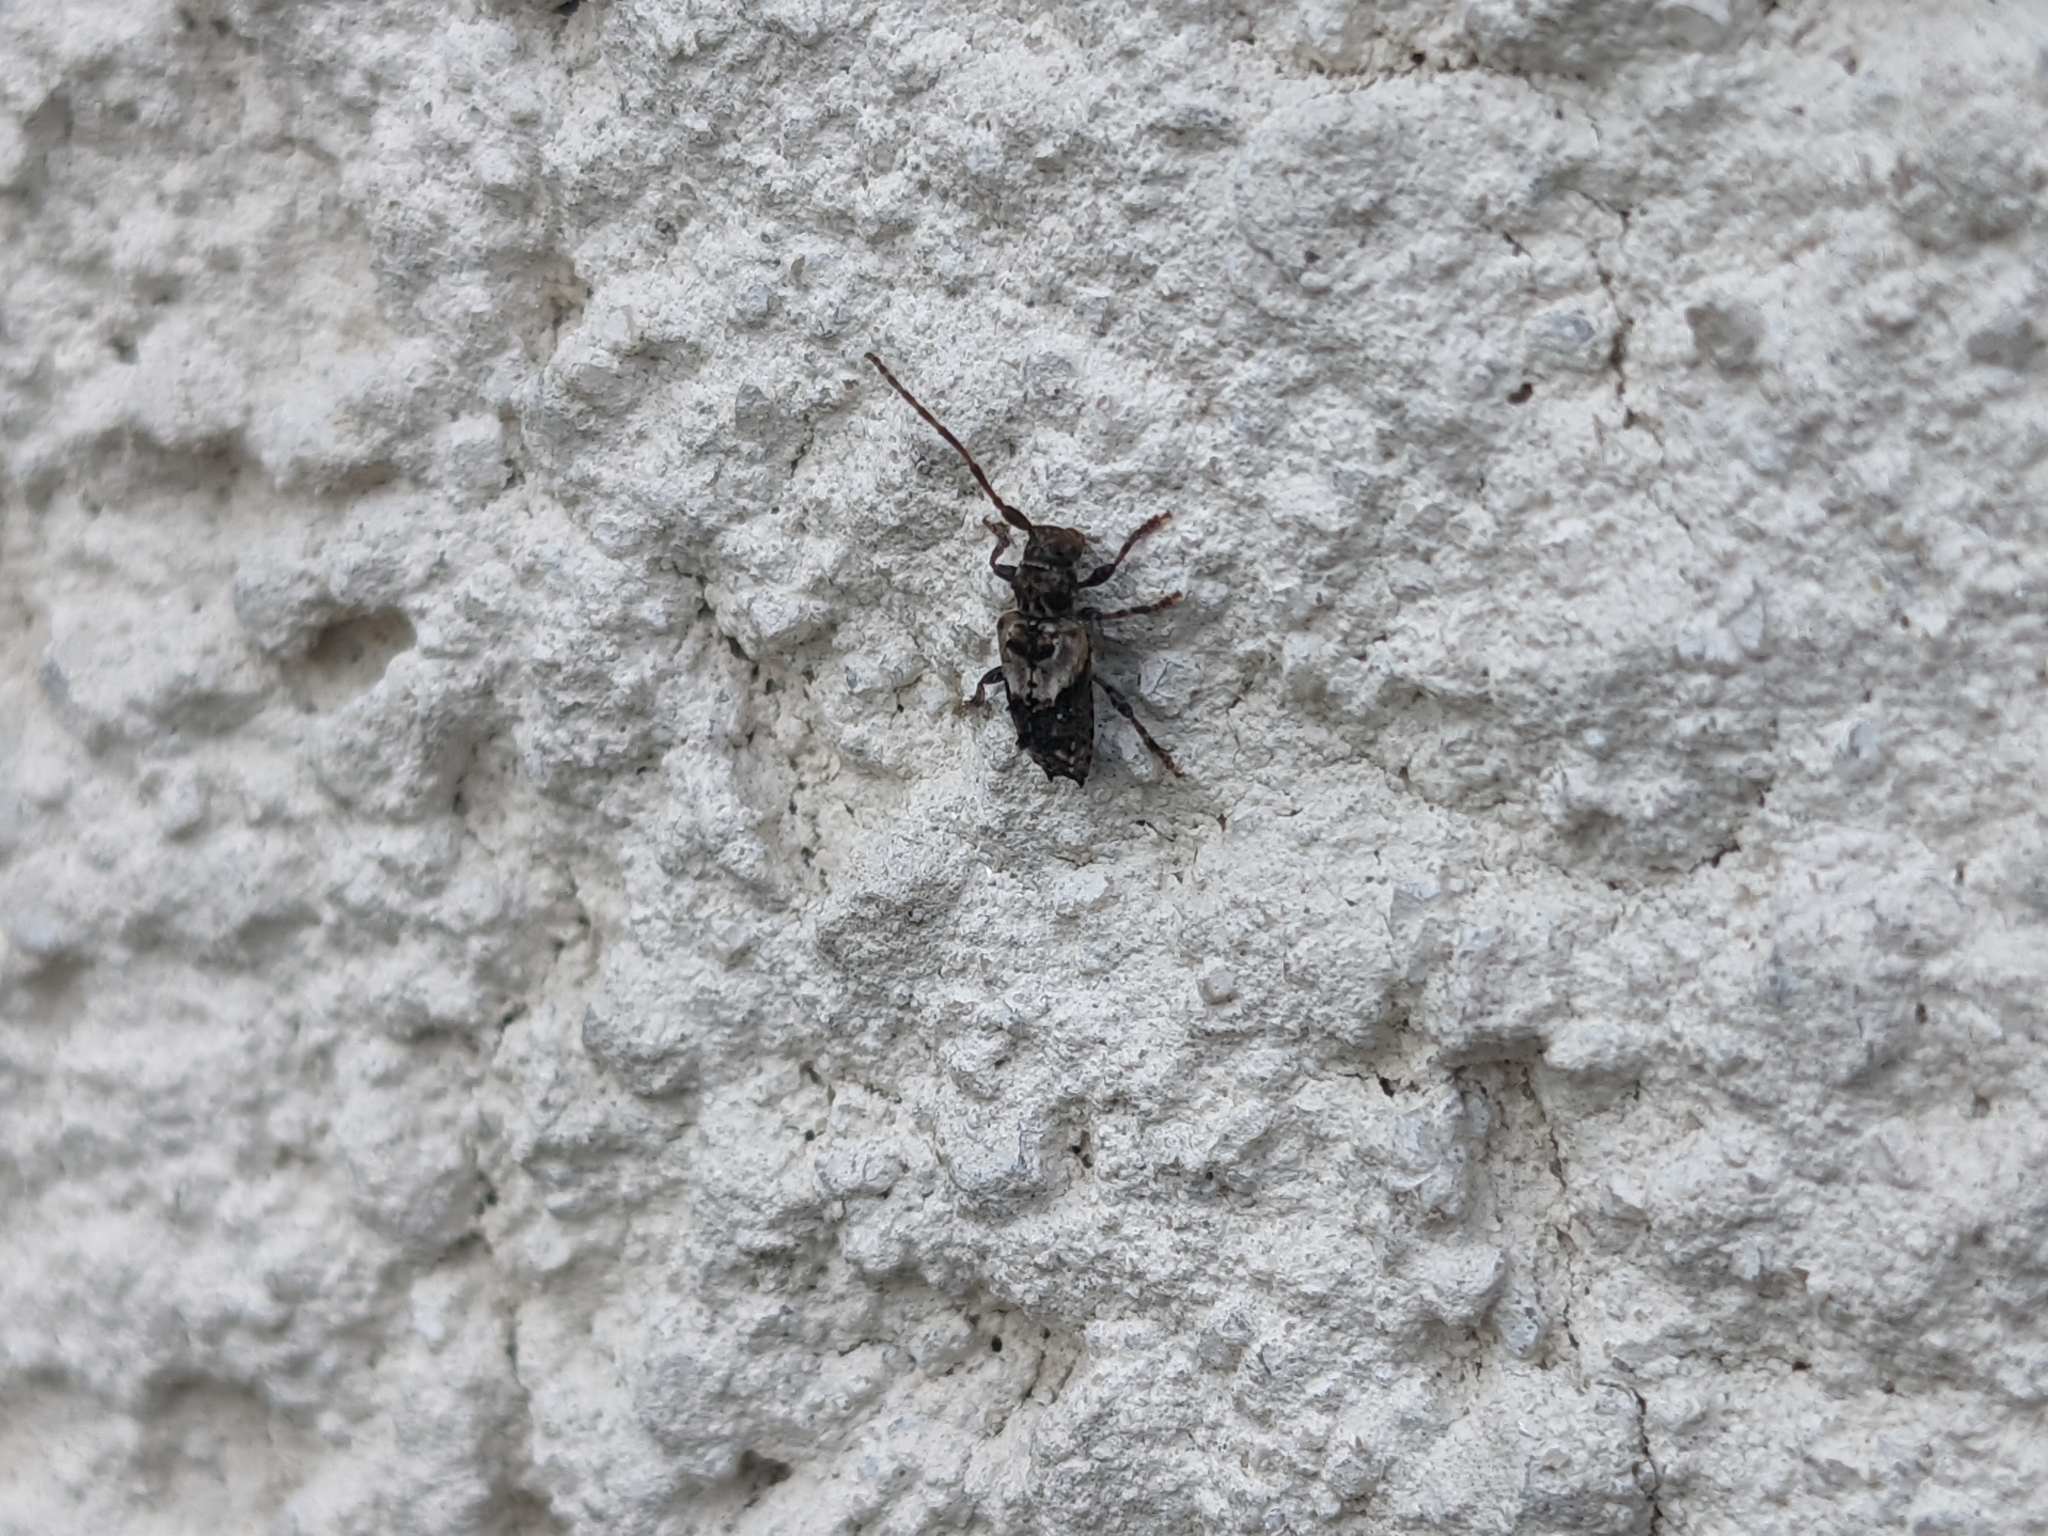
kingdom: Animalia
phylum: Arthropoda
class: Insecta
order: Coleoptera
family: Cerambycidae
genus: Pogonocherus
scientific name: Pogonocherus hispidus
